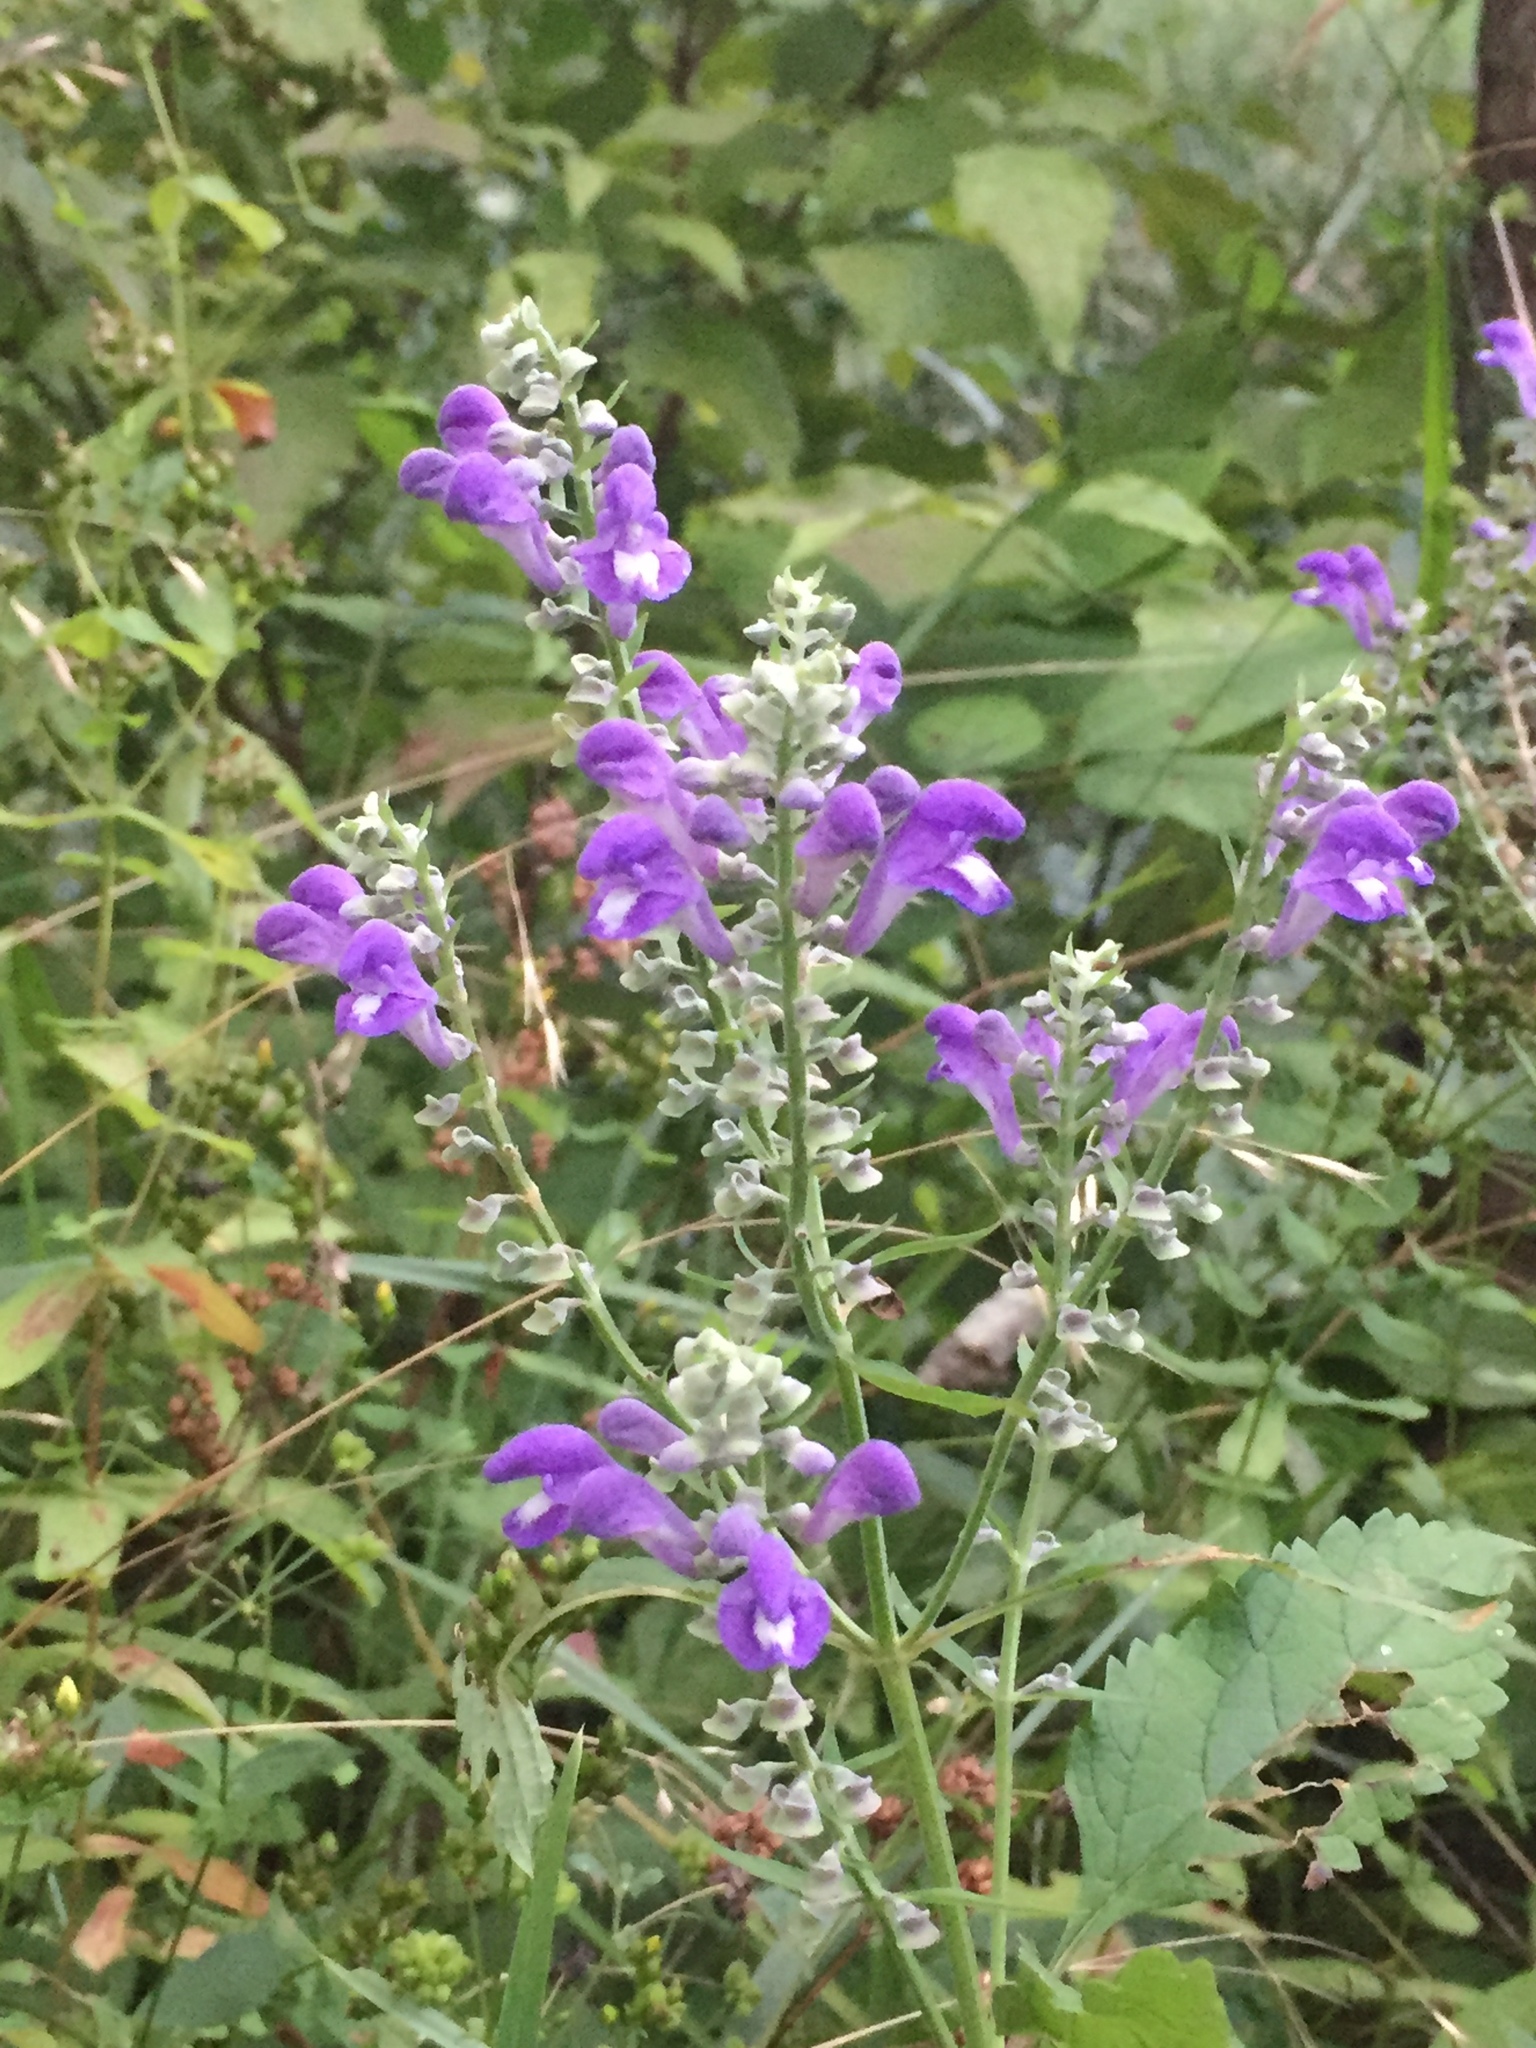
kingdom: Plantae
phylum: Tracheophyta
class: Magnoliopsida
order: Lamiales
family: Lamiaceae
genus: Scutellaria
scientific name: Scutellaria incana
